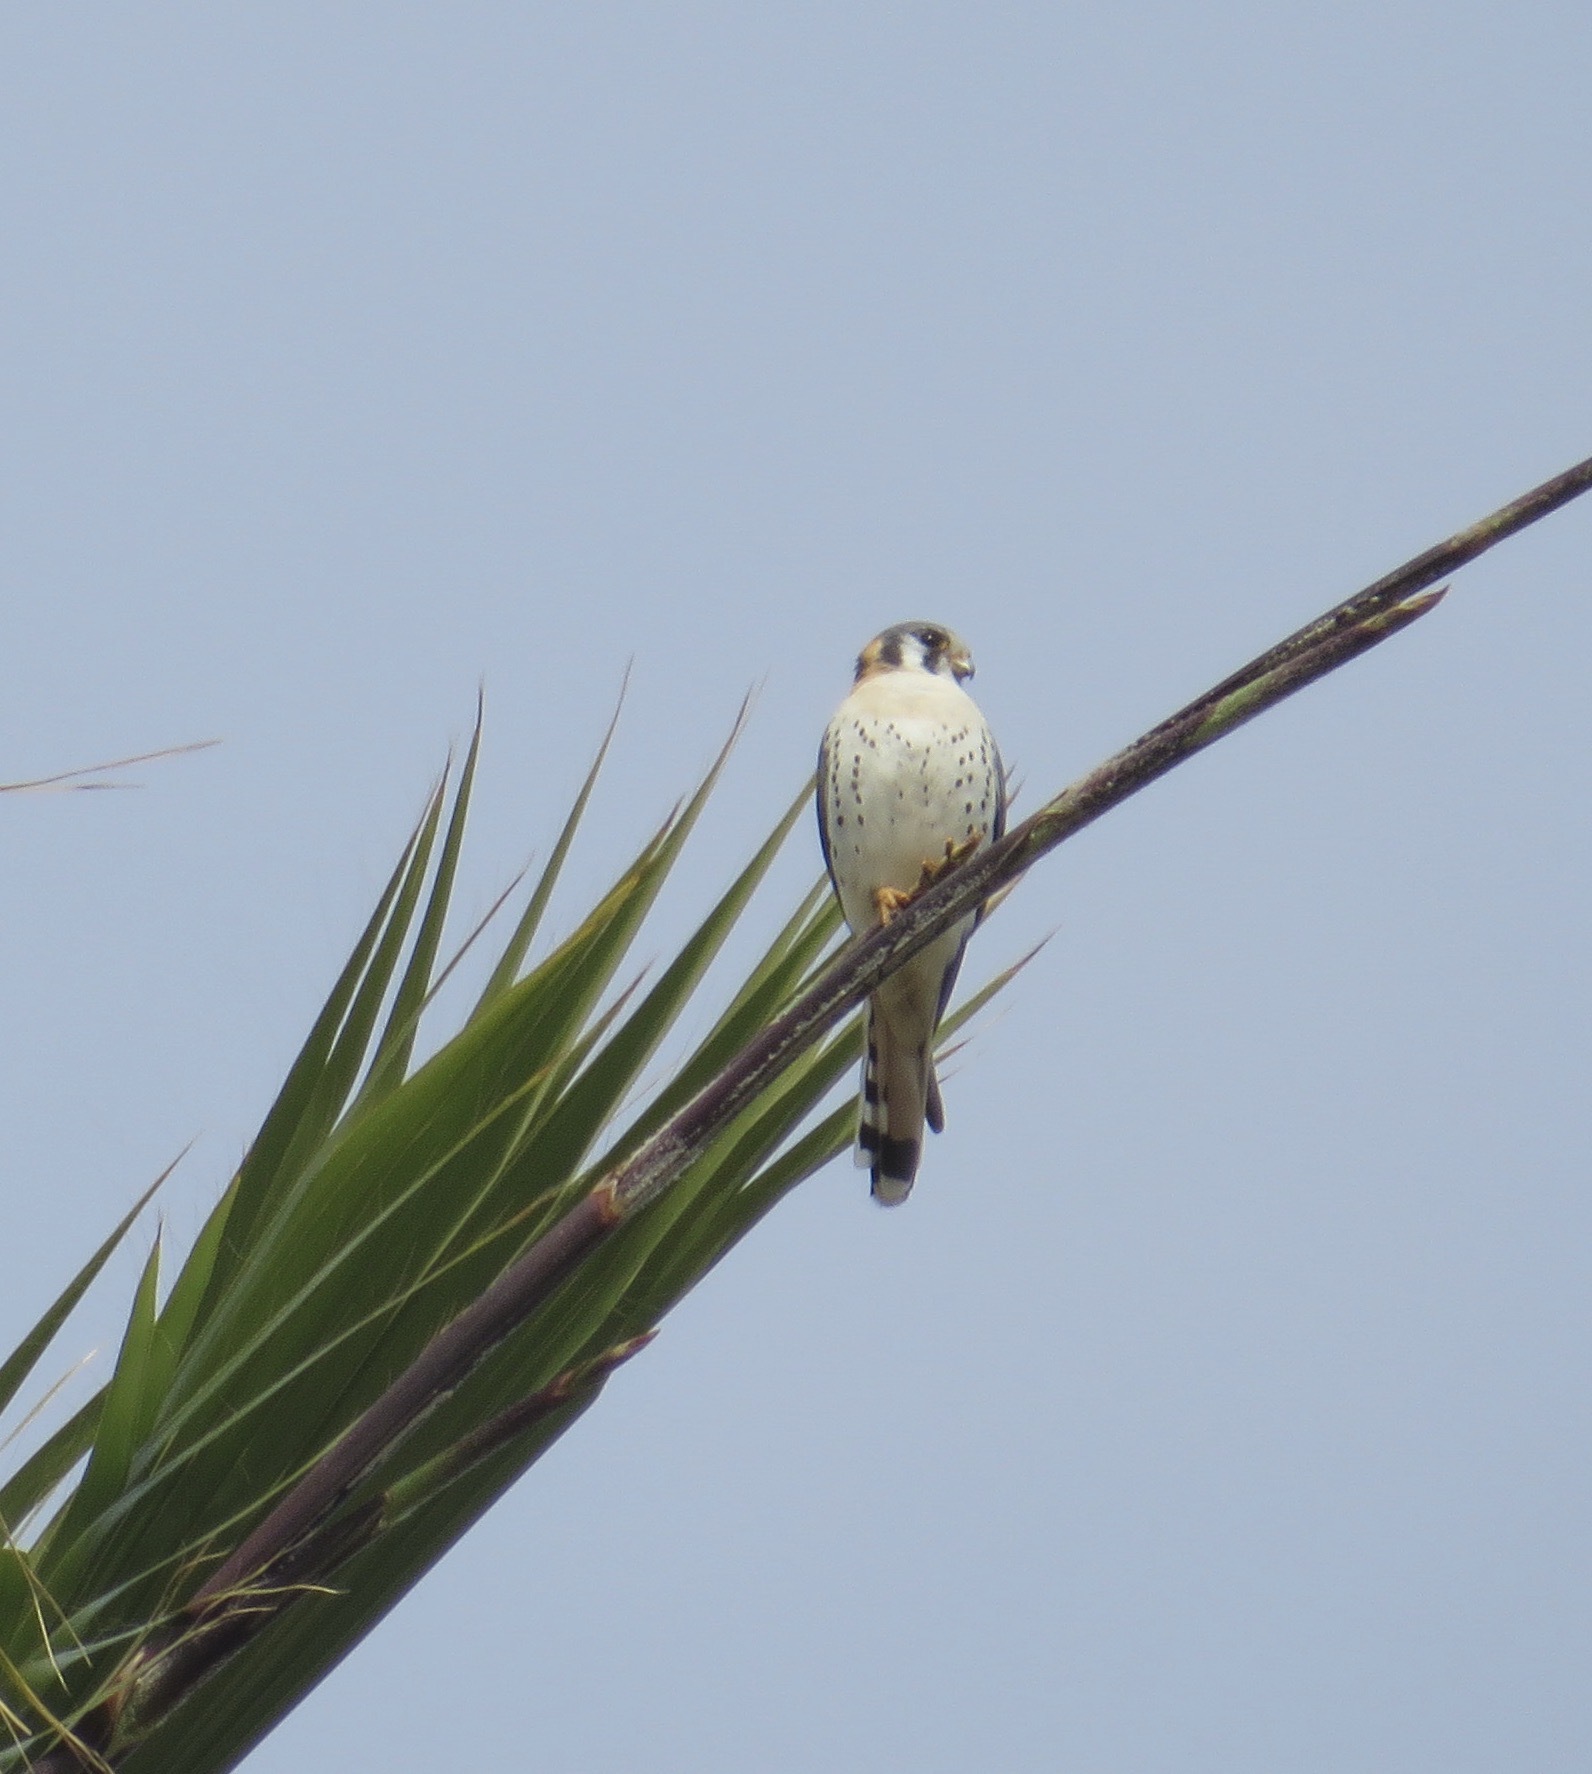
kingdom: Animalia
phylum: Chordata
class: Aves
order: Falconiformes
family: Falconidae
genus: Falco
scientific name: Falco sparverius
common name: American kestrel
